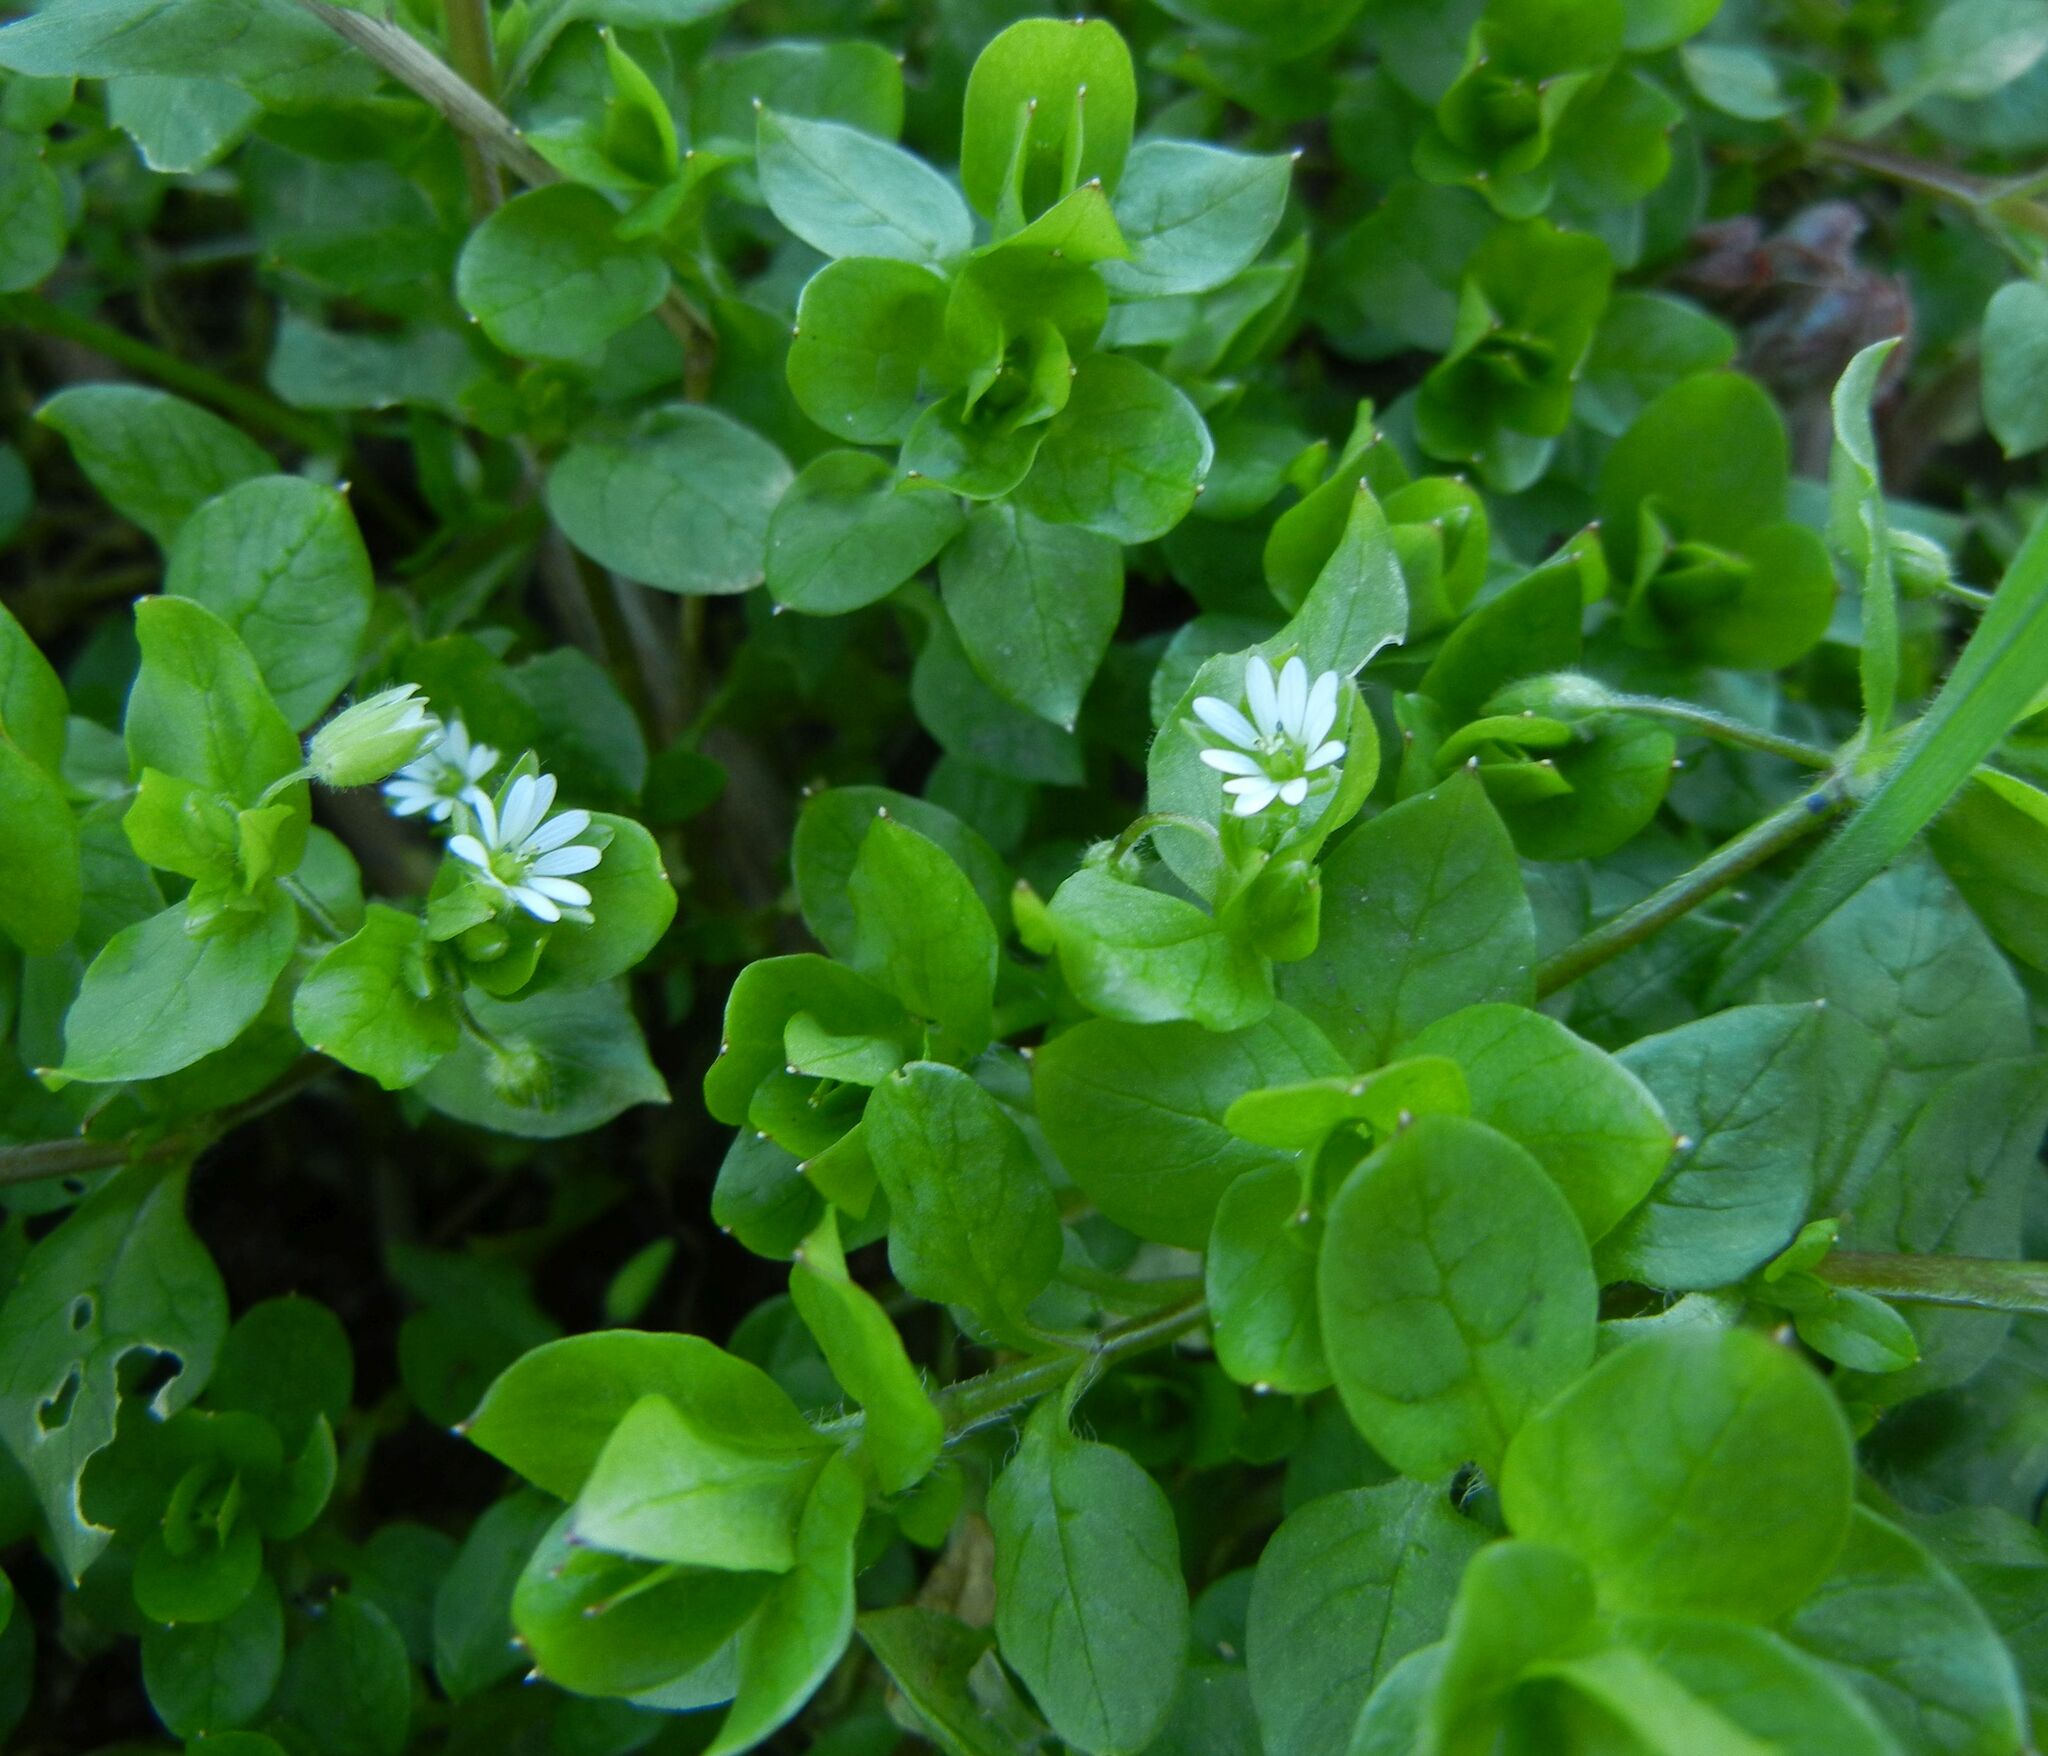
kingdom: Plantae
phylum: Tracheophyta
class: Magnoliopsida
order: Caryophyllales
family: Caryophyllaceae
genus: Stellaria
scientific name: Stellaria media
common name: Common chickweed
